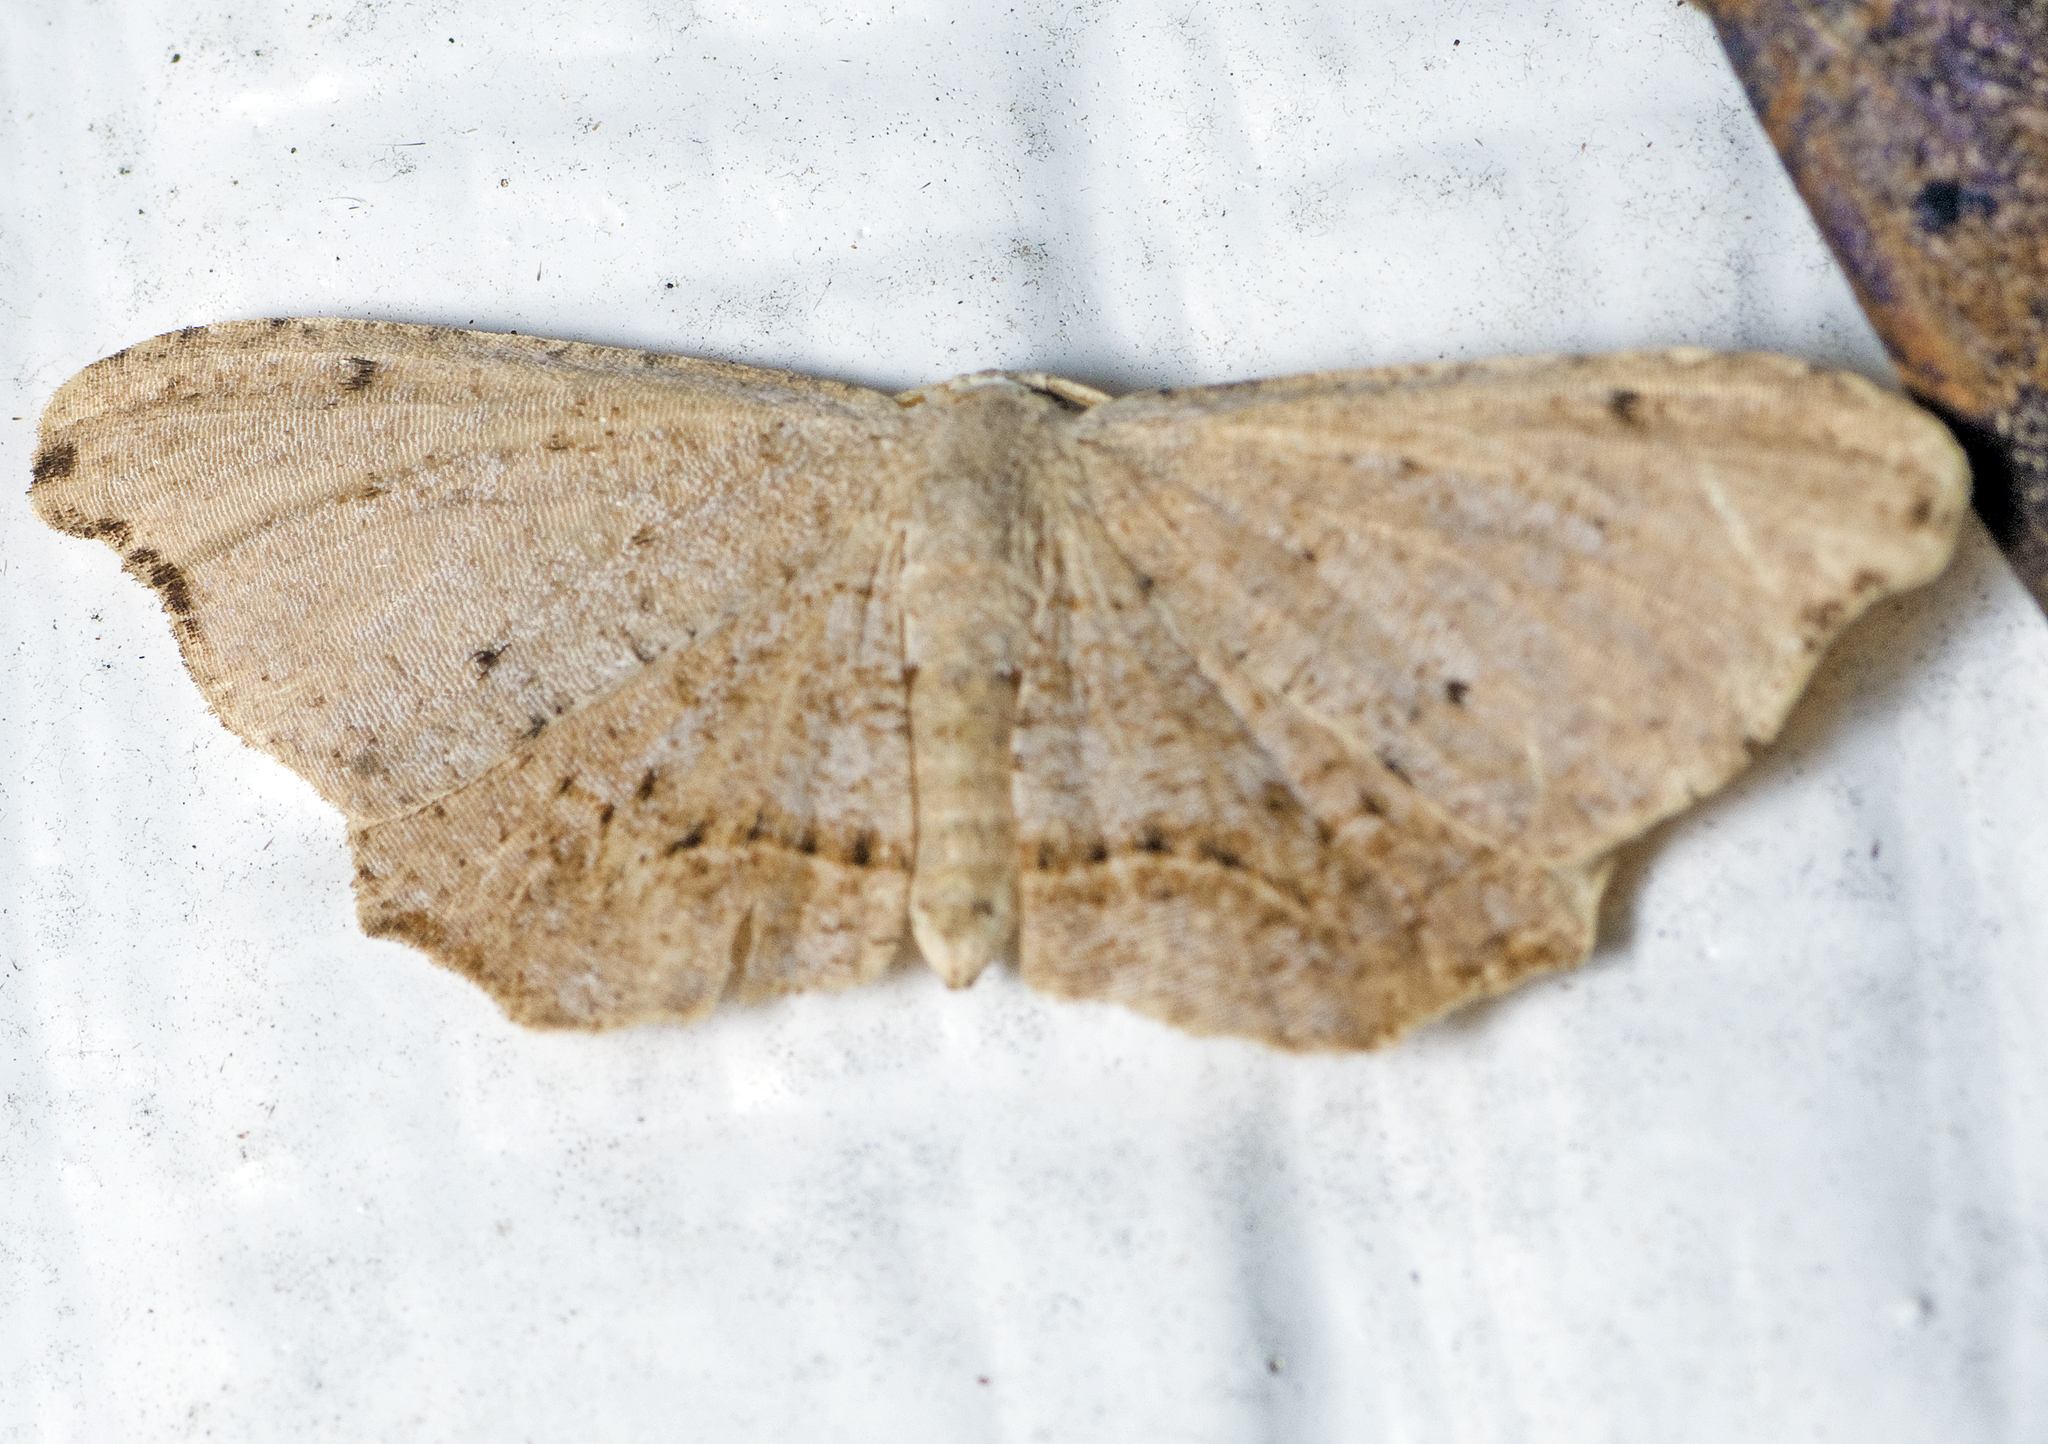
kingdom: Animalia
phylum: Arthropoda
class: Insecta
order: Lepidoptera
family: Uraniidae
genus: Epiplema
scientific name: Epiplema argillodes
